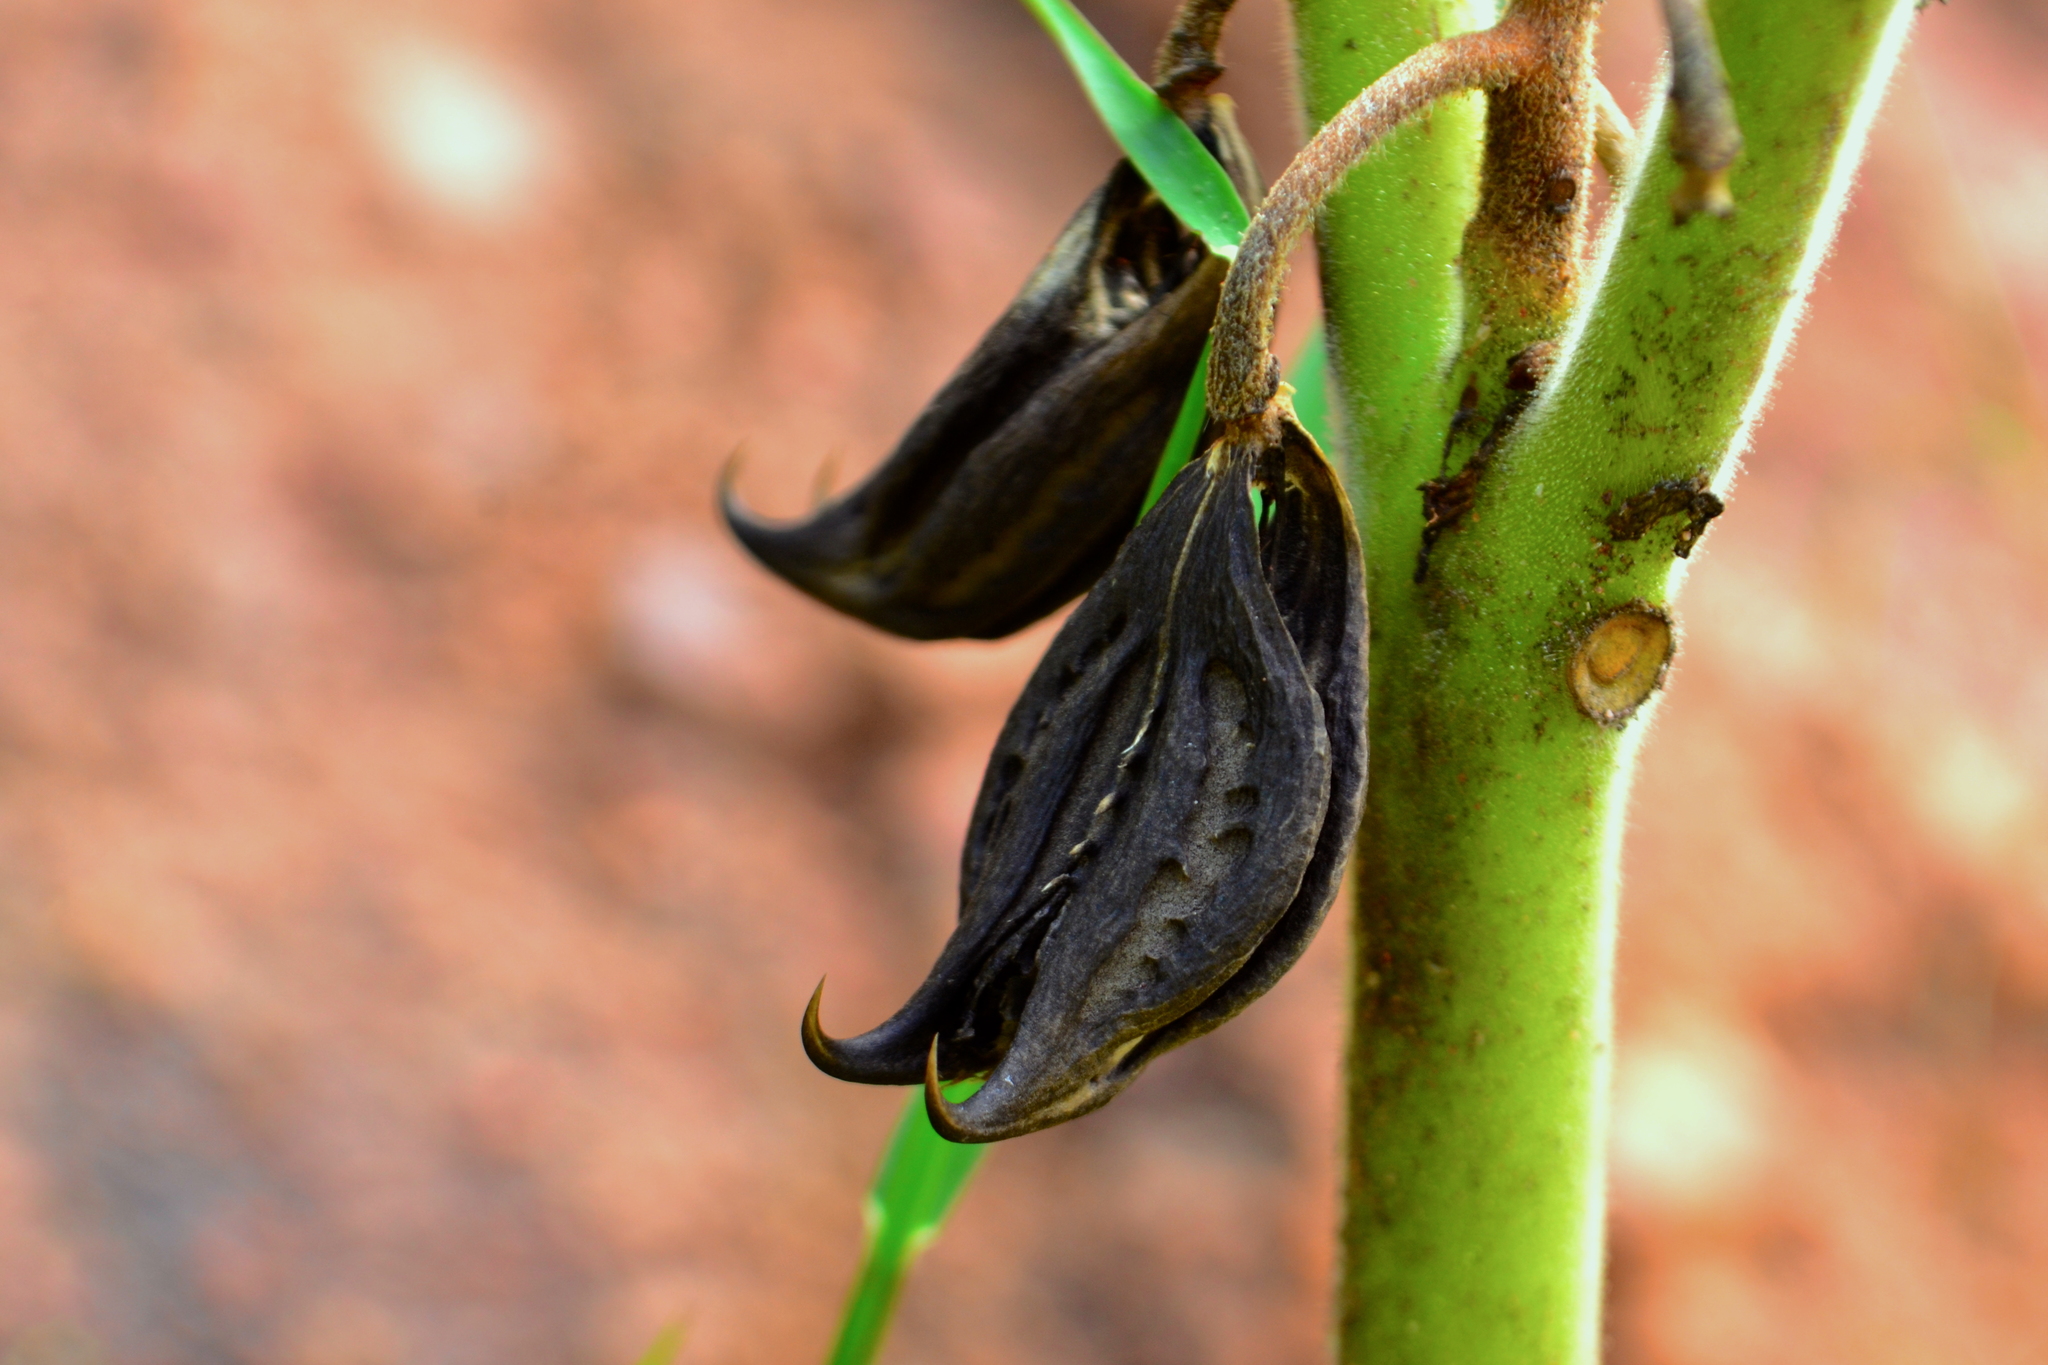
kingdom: Plantae
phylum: Tracheophyta
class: Magnoliopsida
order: Lamiales
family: Martyniaceae
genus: Martynia
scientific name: Martynia annua
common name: Tiger's-claw
